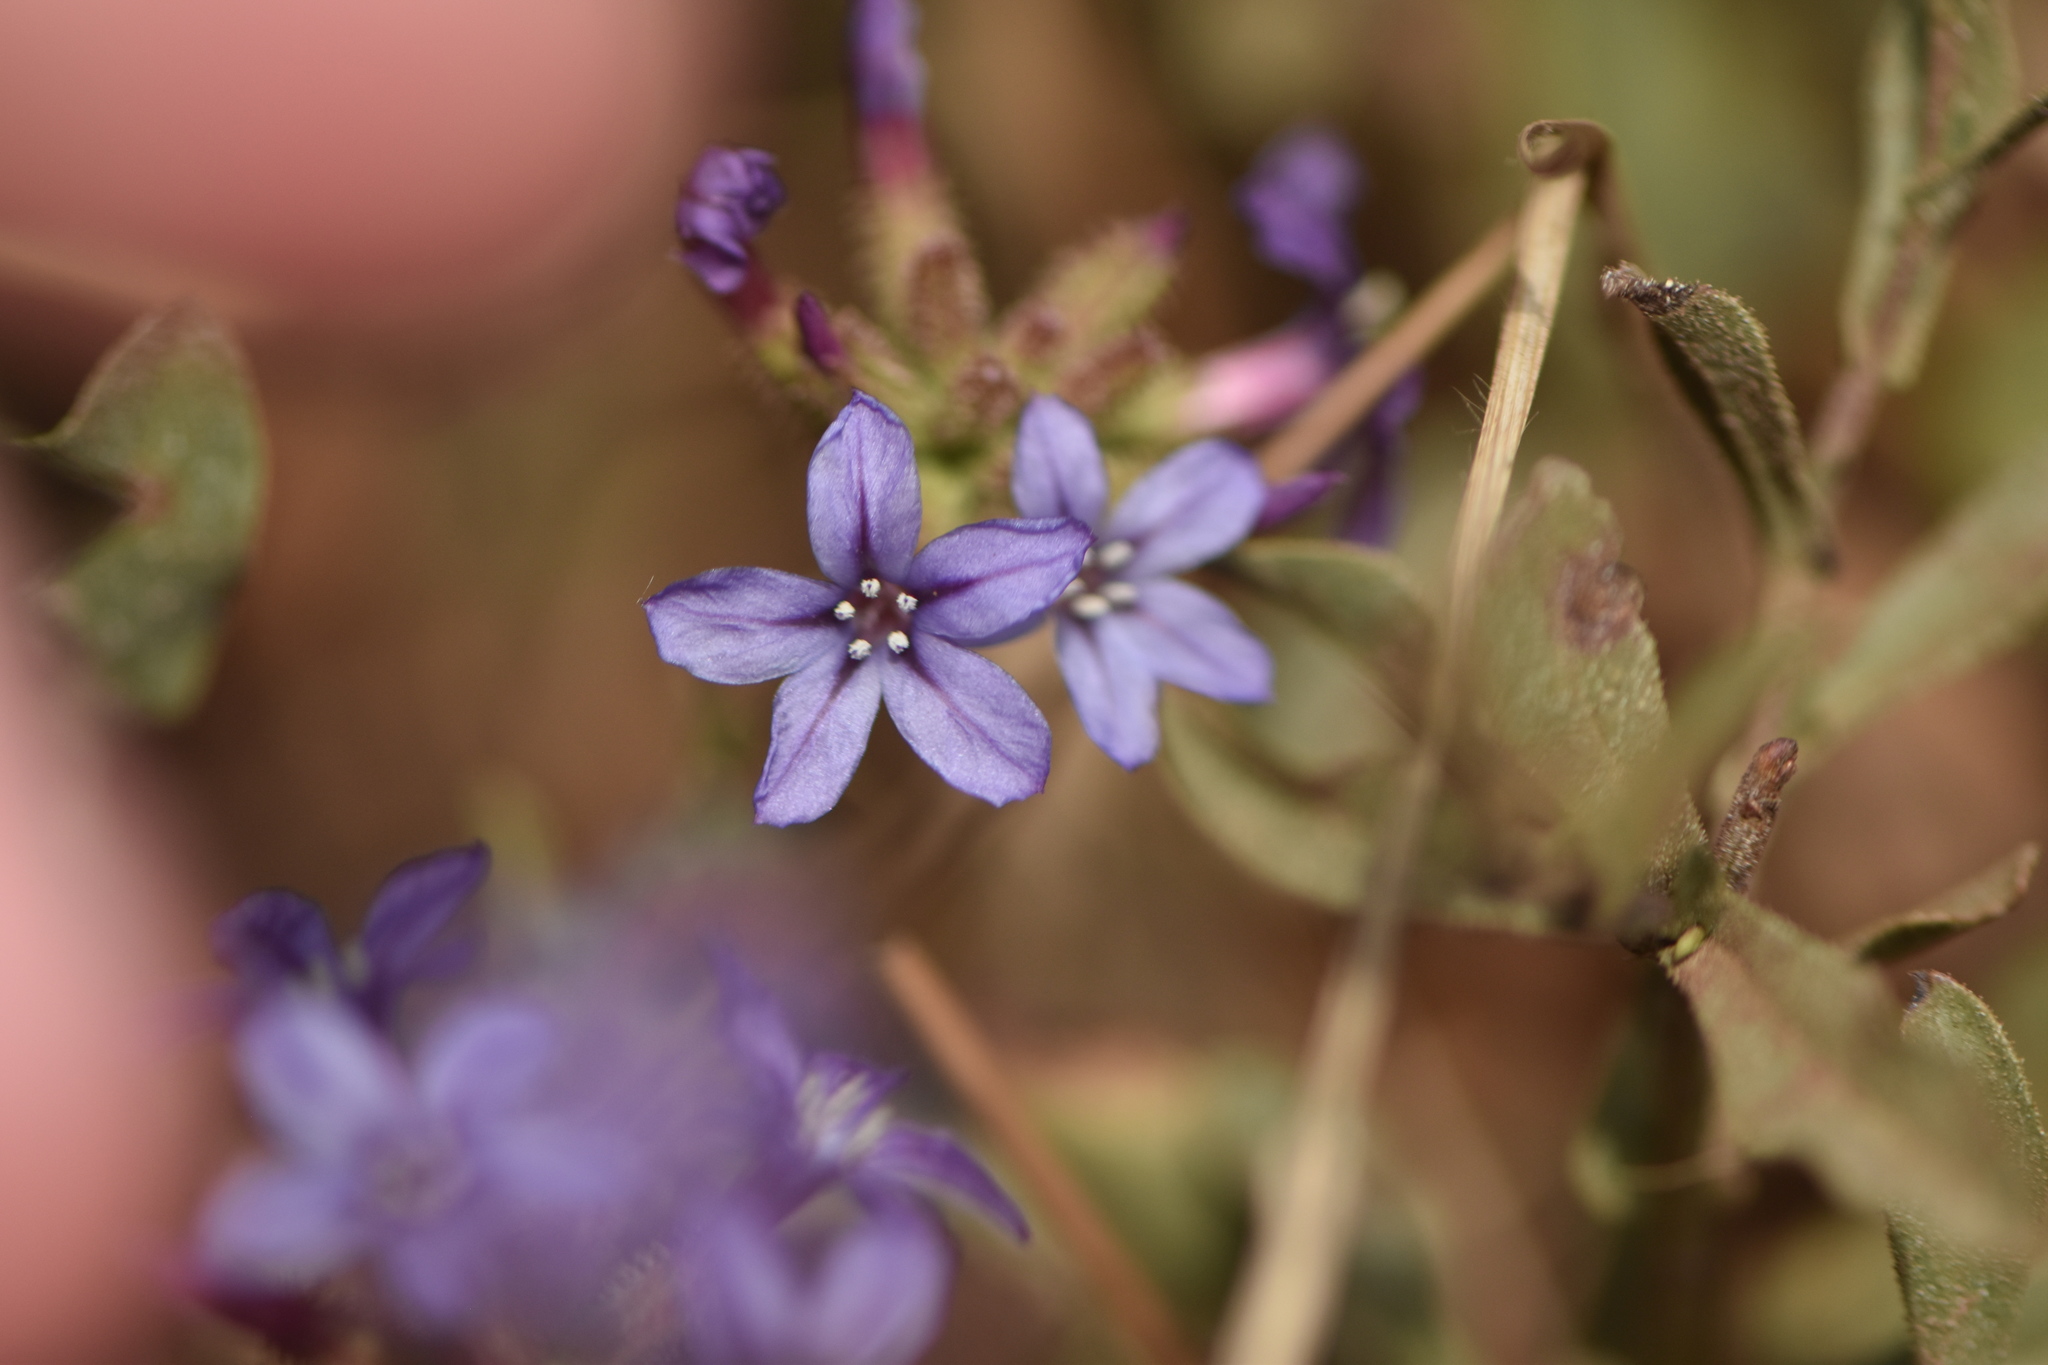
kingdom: Plantae
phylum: Tracheophyta
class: Magnoliopsida
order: Caryophyllales
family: Plumbaginaceae
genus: Plumbago
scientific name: Plumbago europaea
